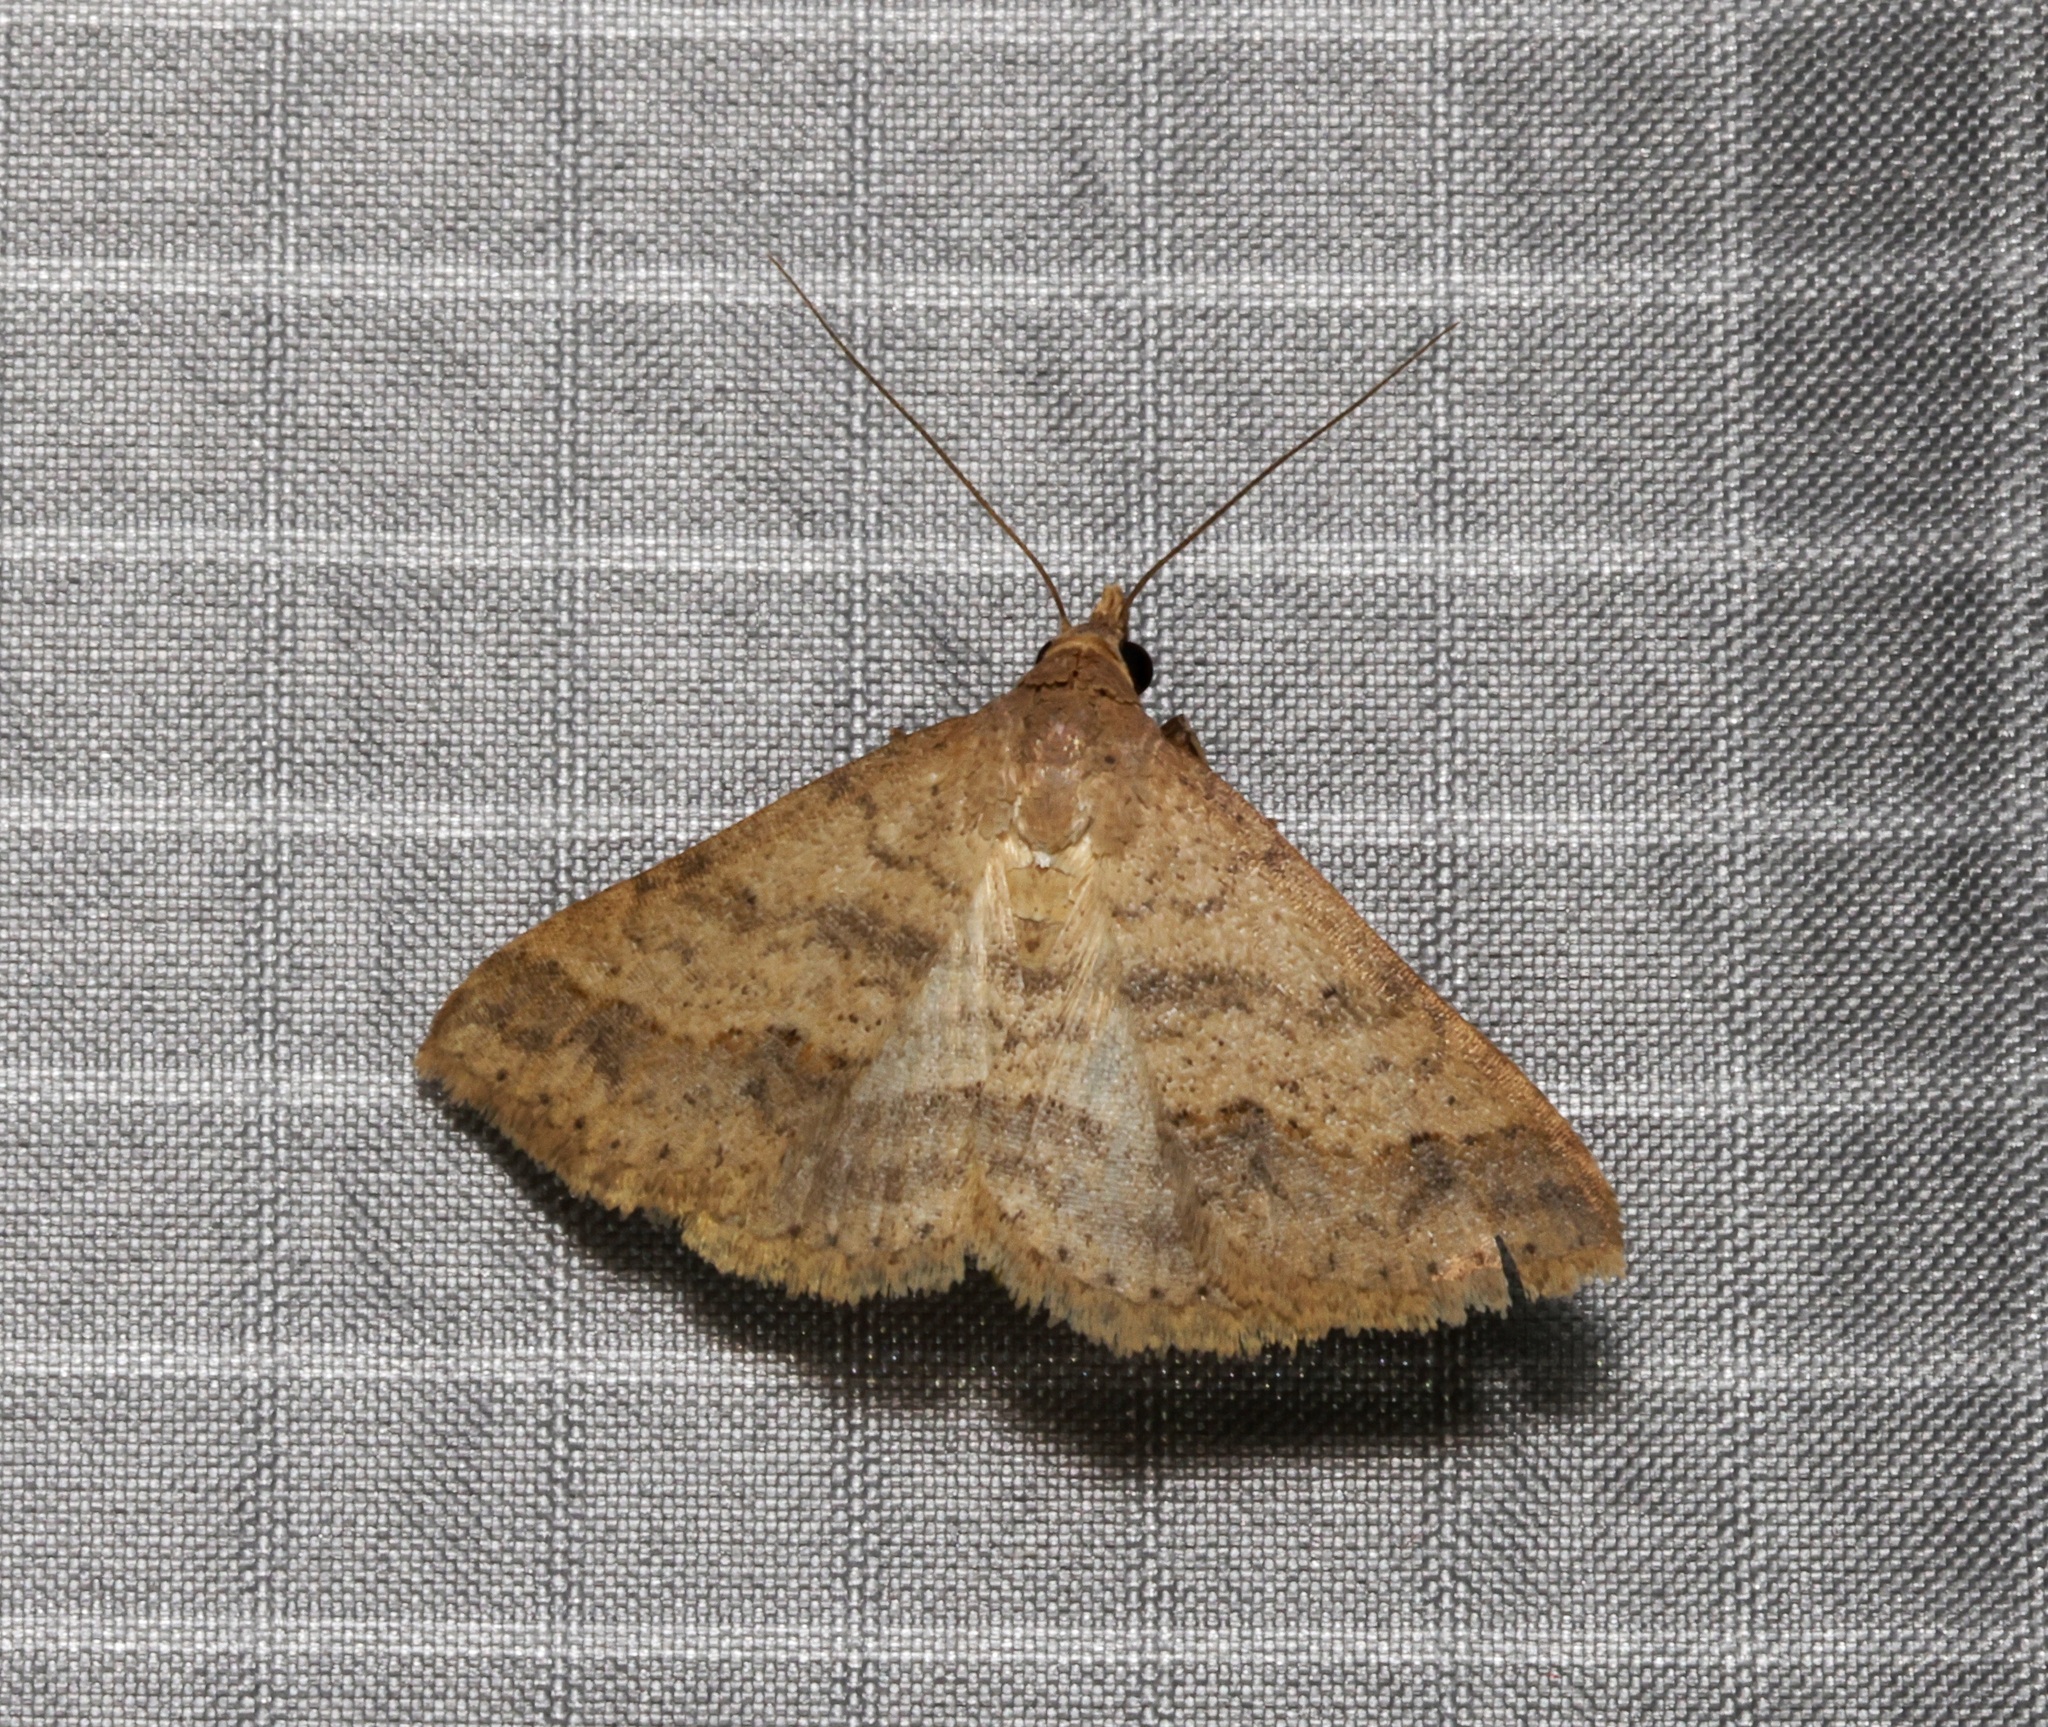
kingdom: Animalia
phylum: Arthropoda
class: Insecta
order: Lepidoptera
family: Erebidae
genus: Gesonia
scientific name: Gesonia obeditalis
